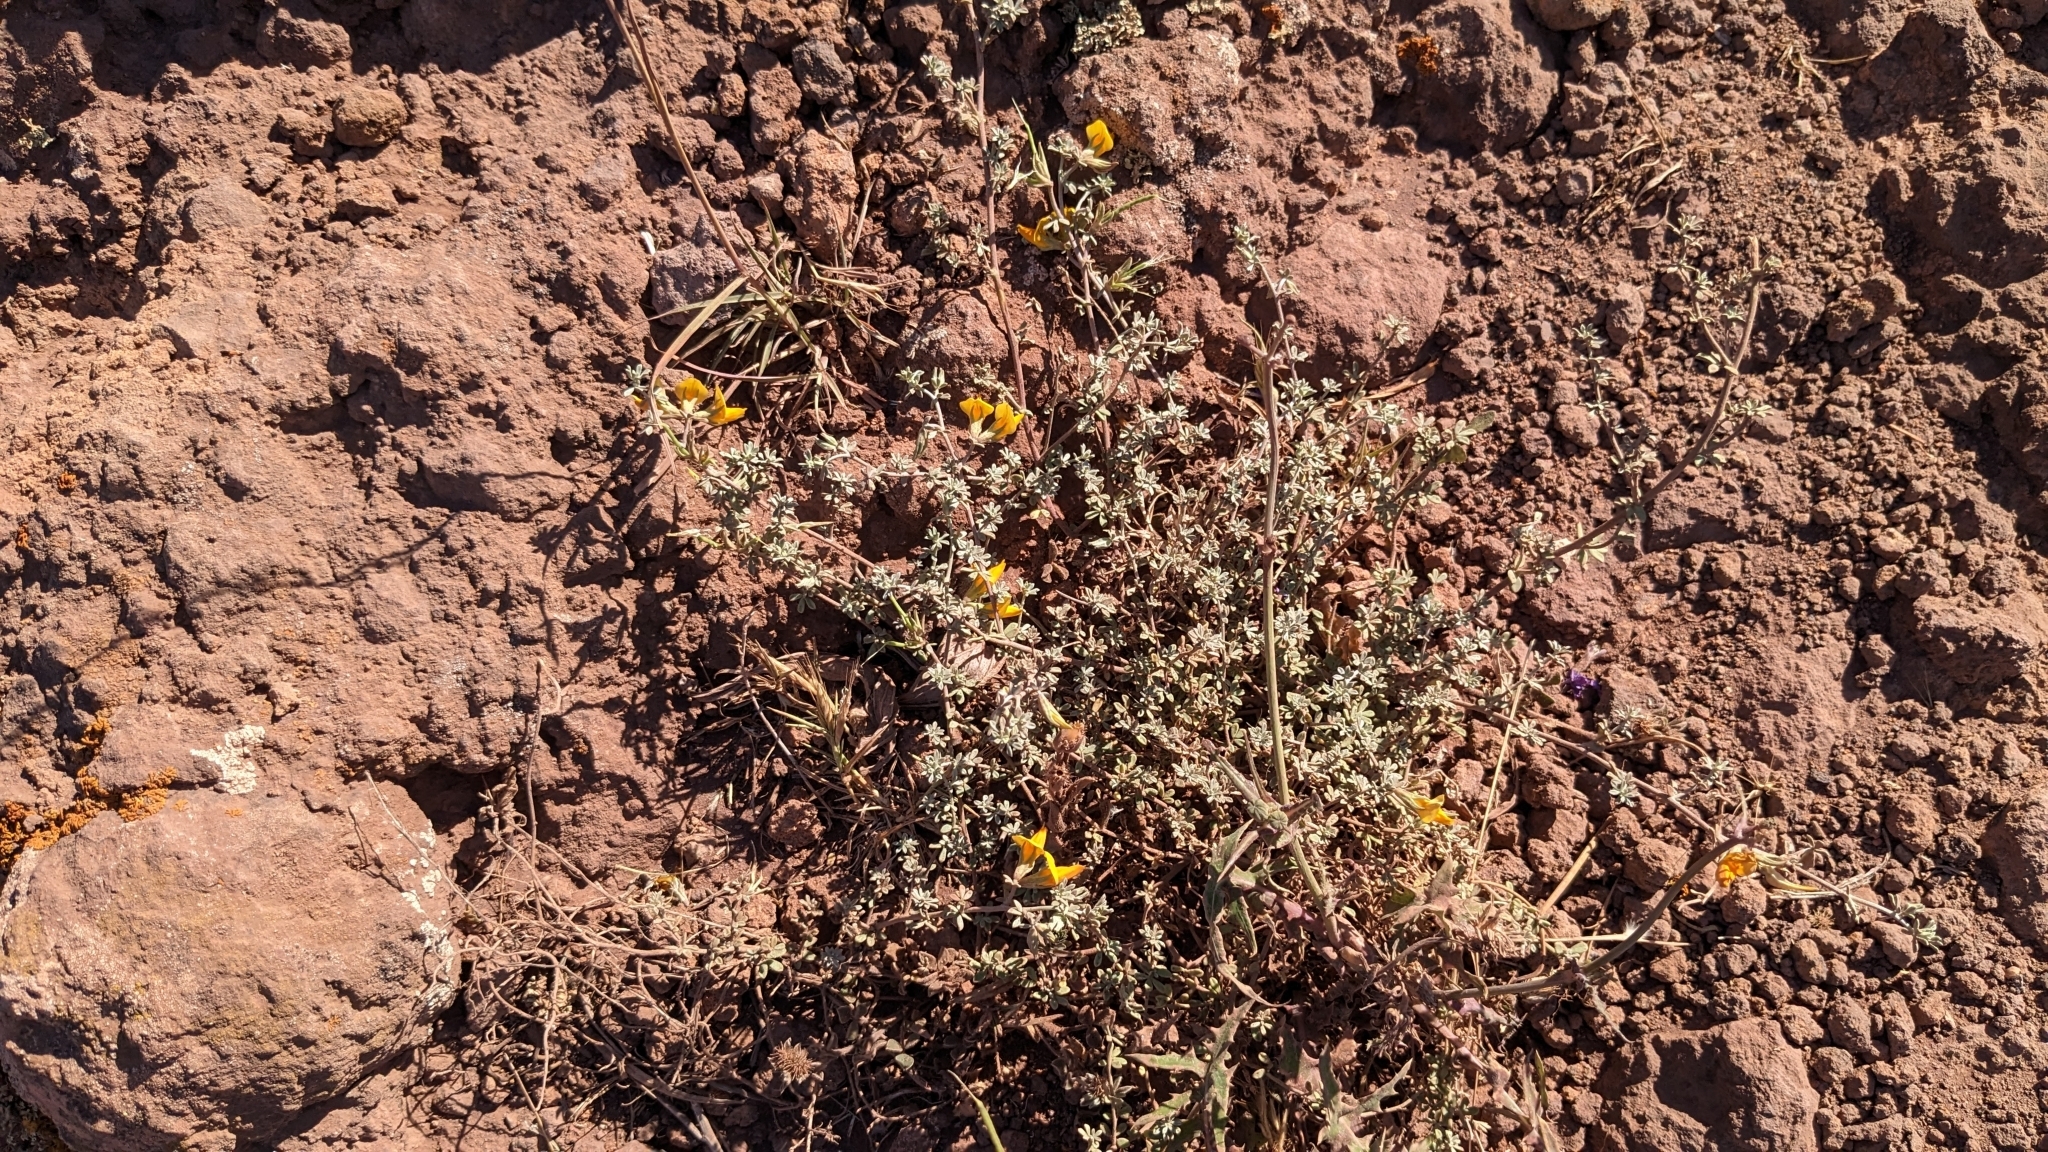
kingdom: Plantae
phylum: Tracheophyta
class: Magnoliopsida
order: Fabales
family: Fabaceae
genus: Lotus
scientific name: Lotus glaucus
